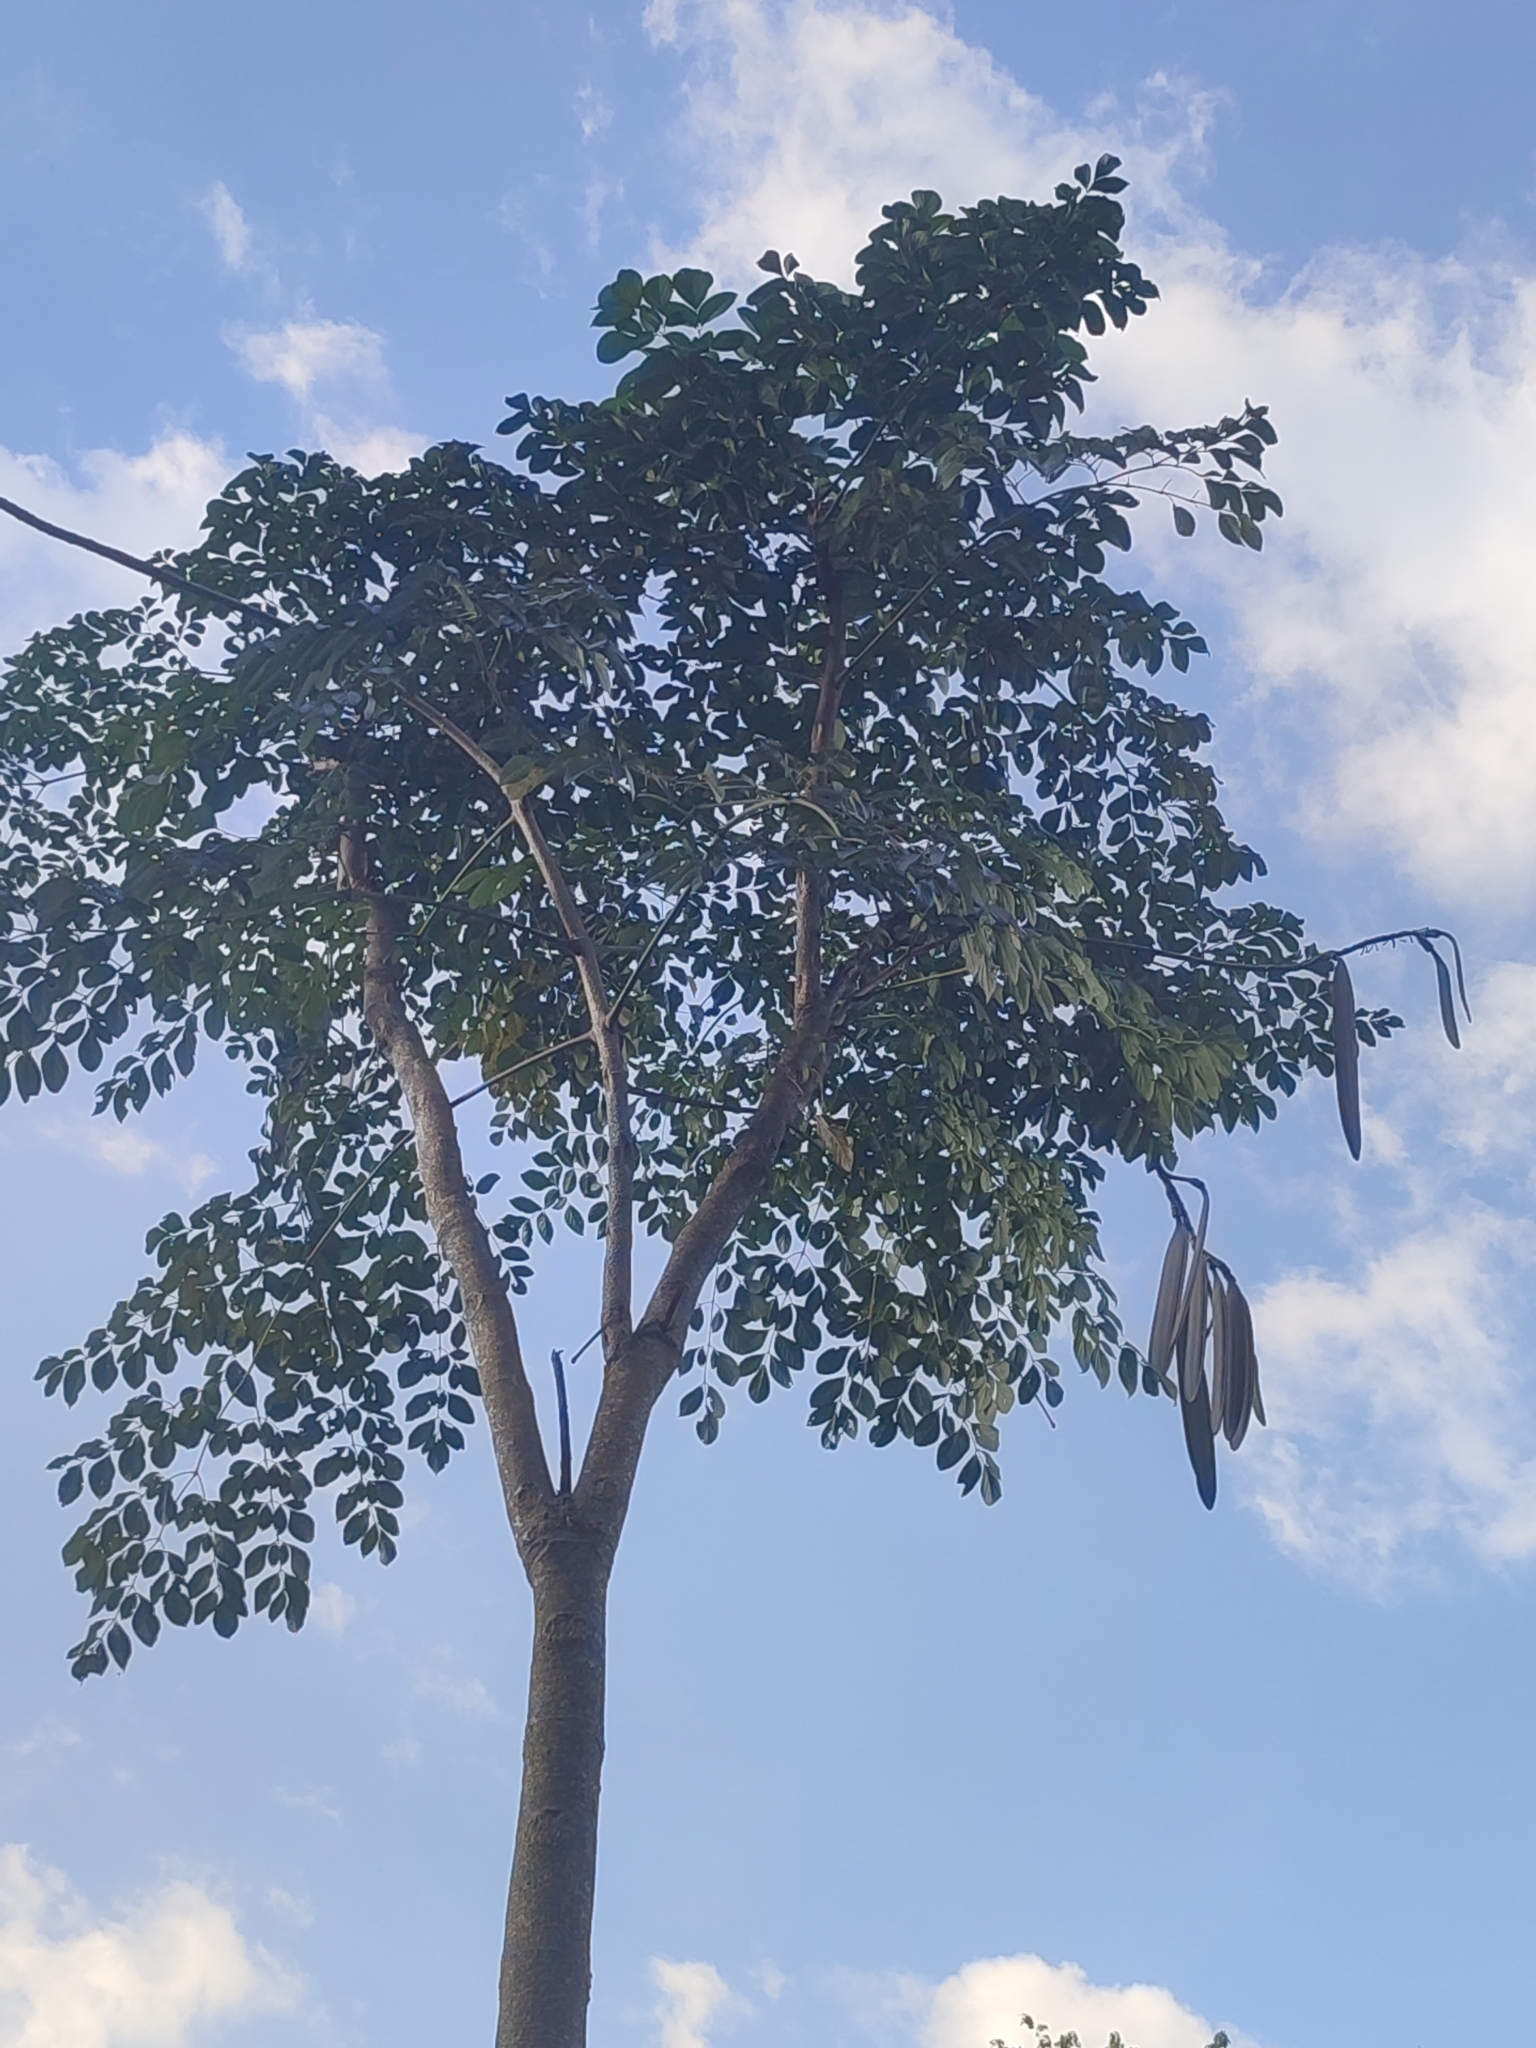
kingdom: Plantae
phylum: Tracheophyta
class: Magnoliopsida
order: Lamiales
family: Bignoniaceae
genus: Oroxylum
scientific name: Oroxylum indicum
